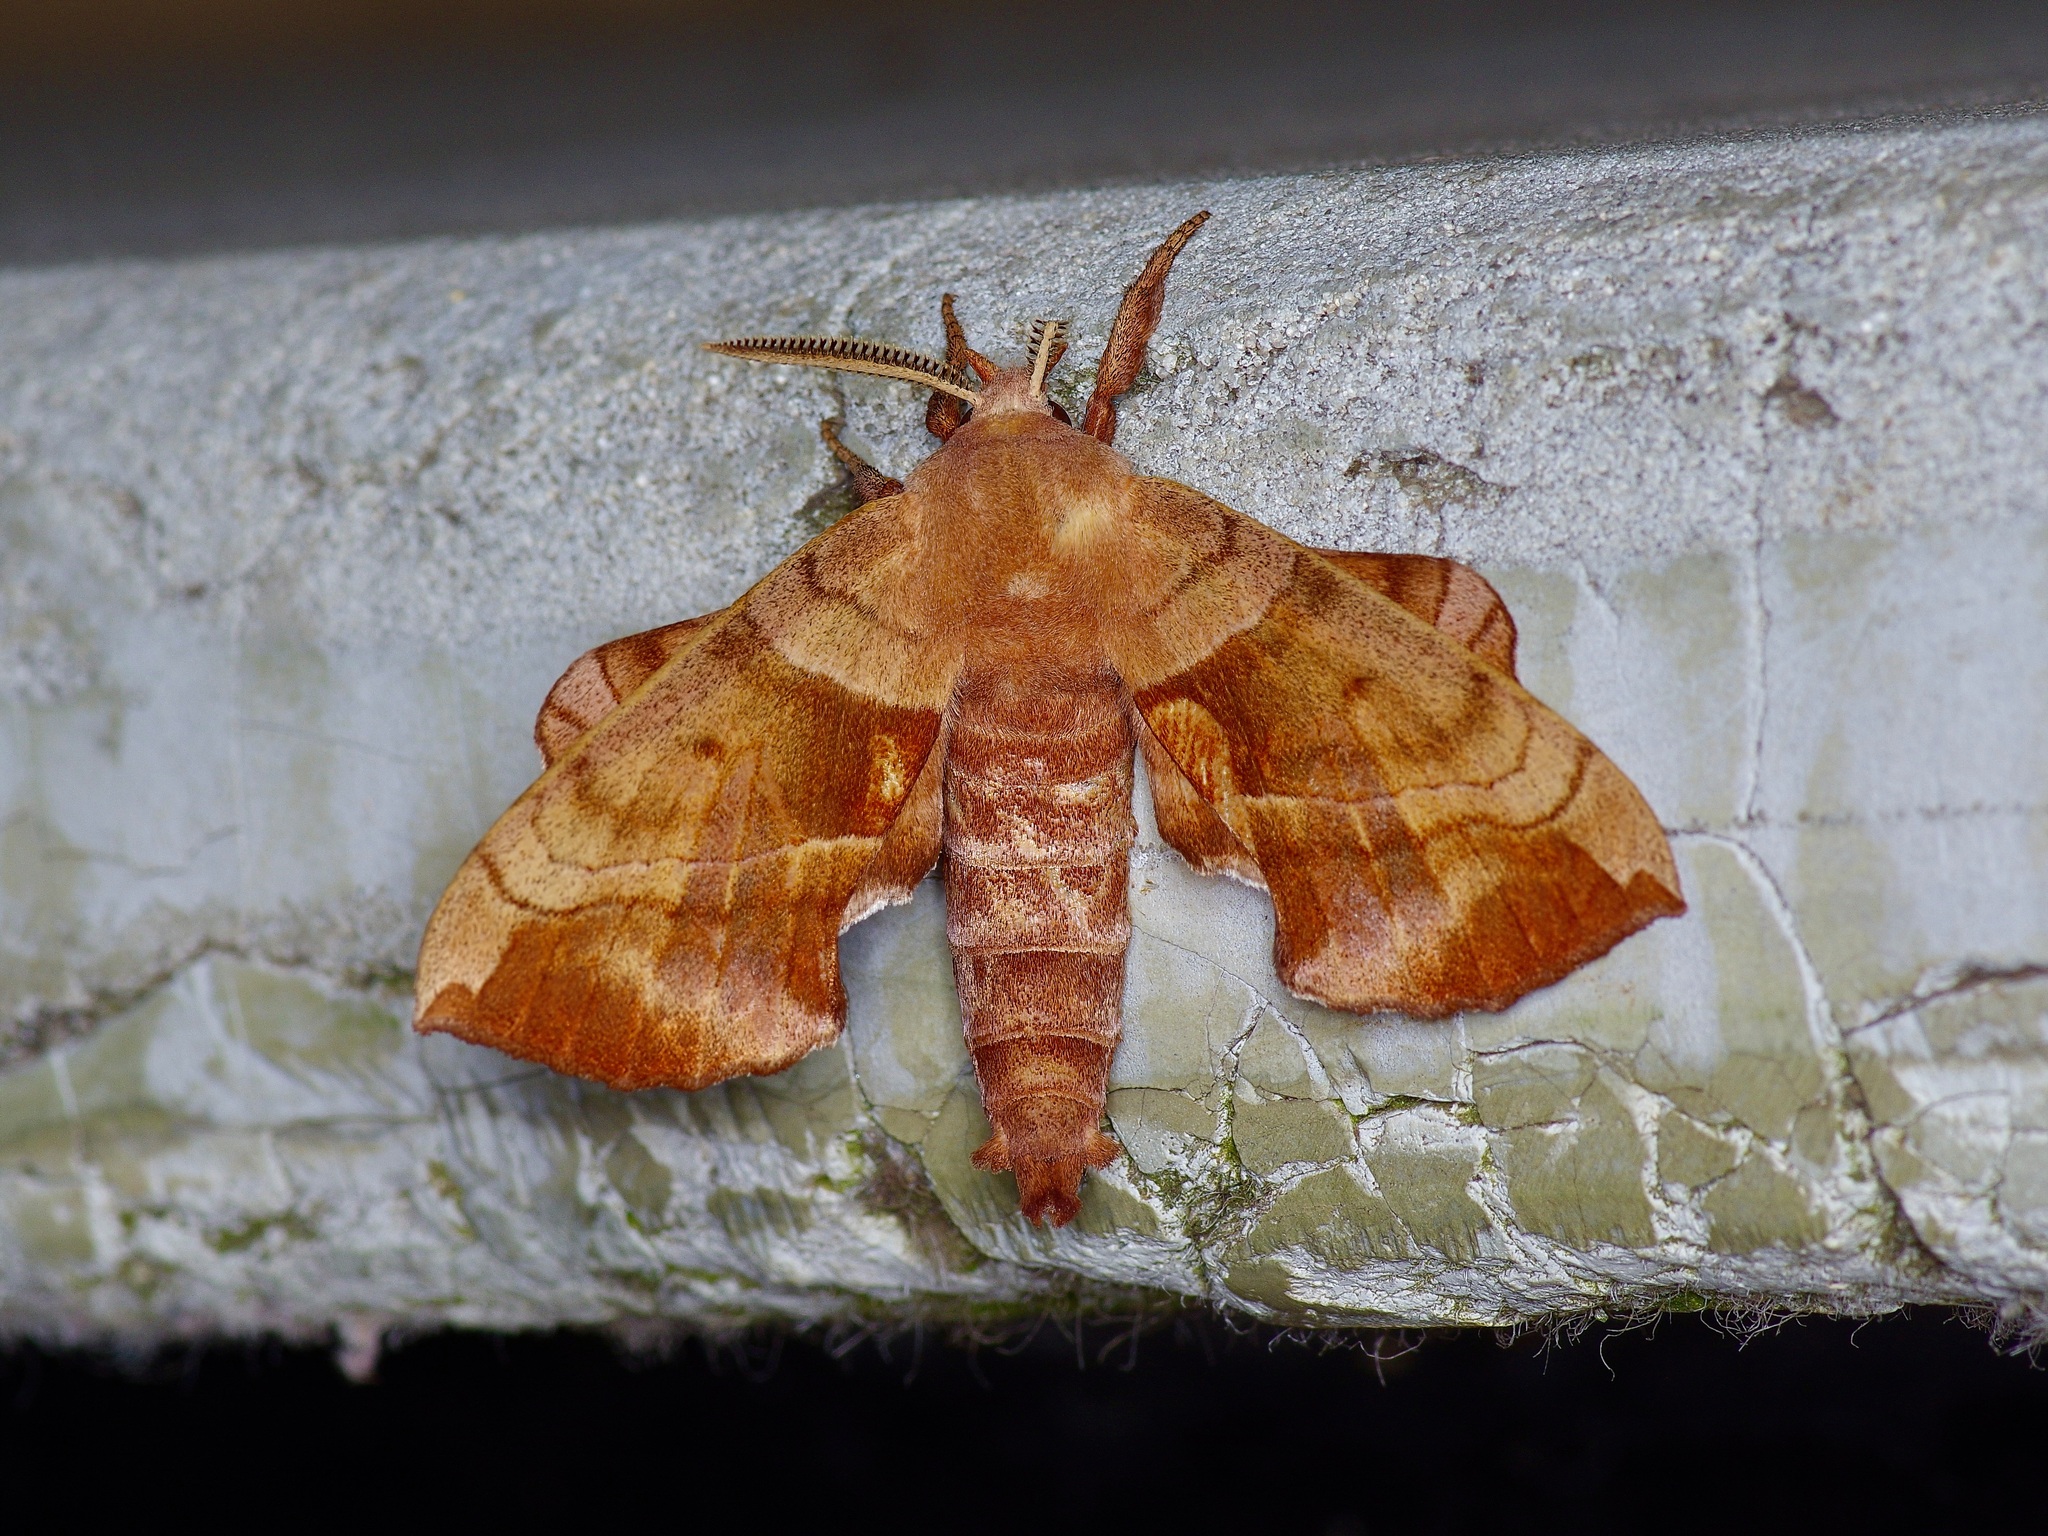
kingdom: Animalia
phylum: Arthropoda
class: Insecta
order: Lepidoptera
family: Sphingidae
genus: Amorpha
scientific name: Amorpha juglandis
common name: Walnut sphinx
